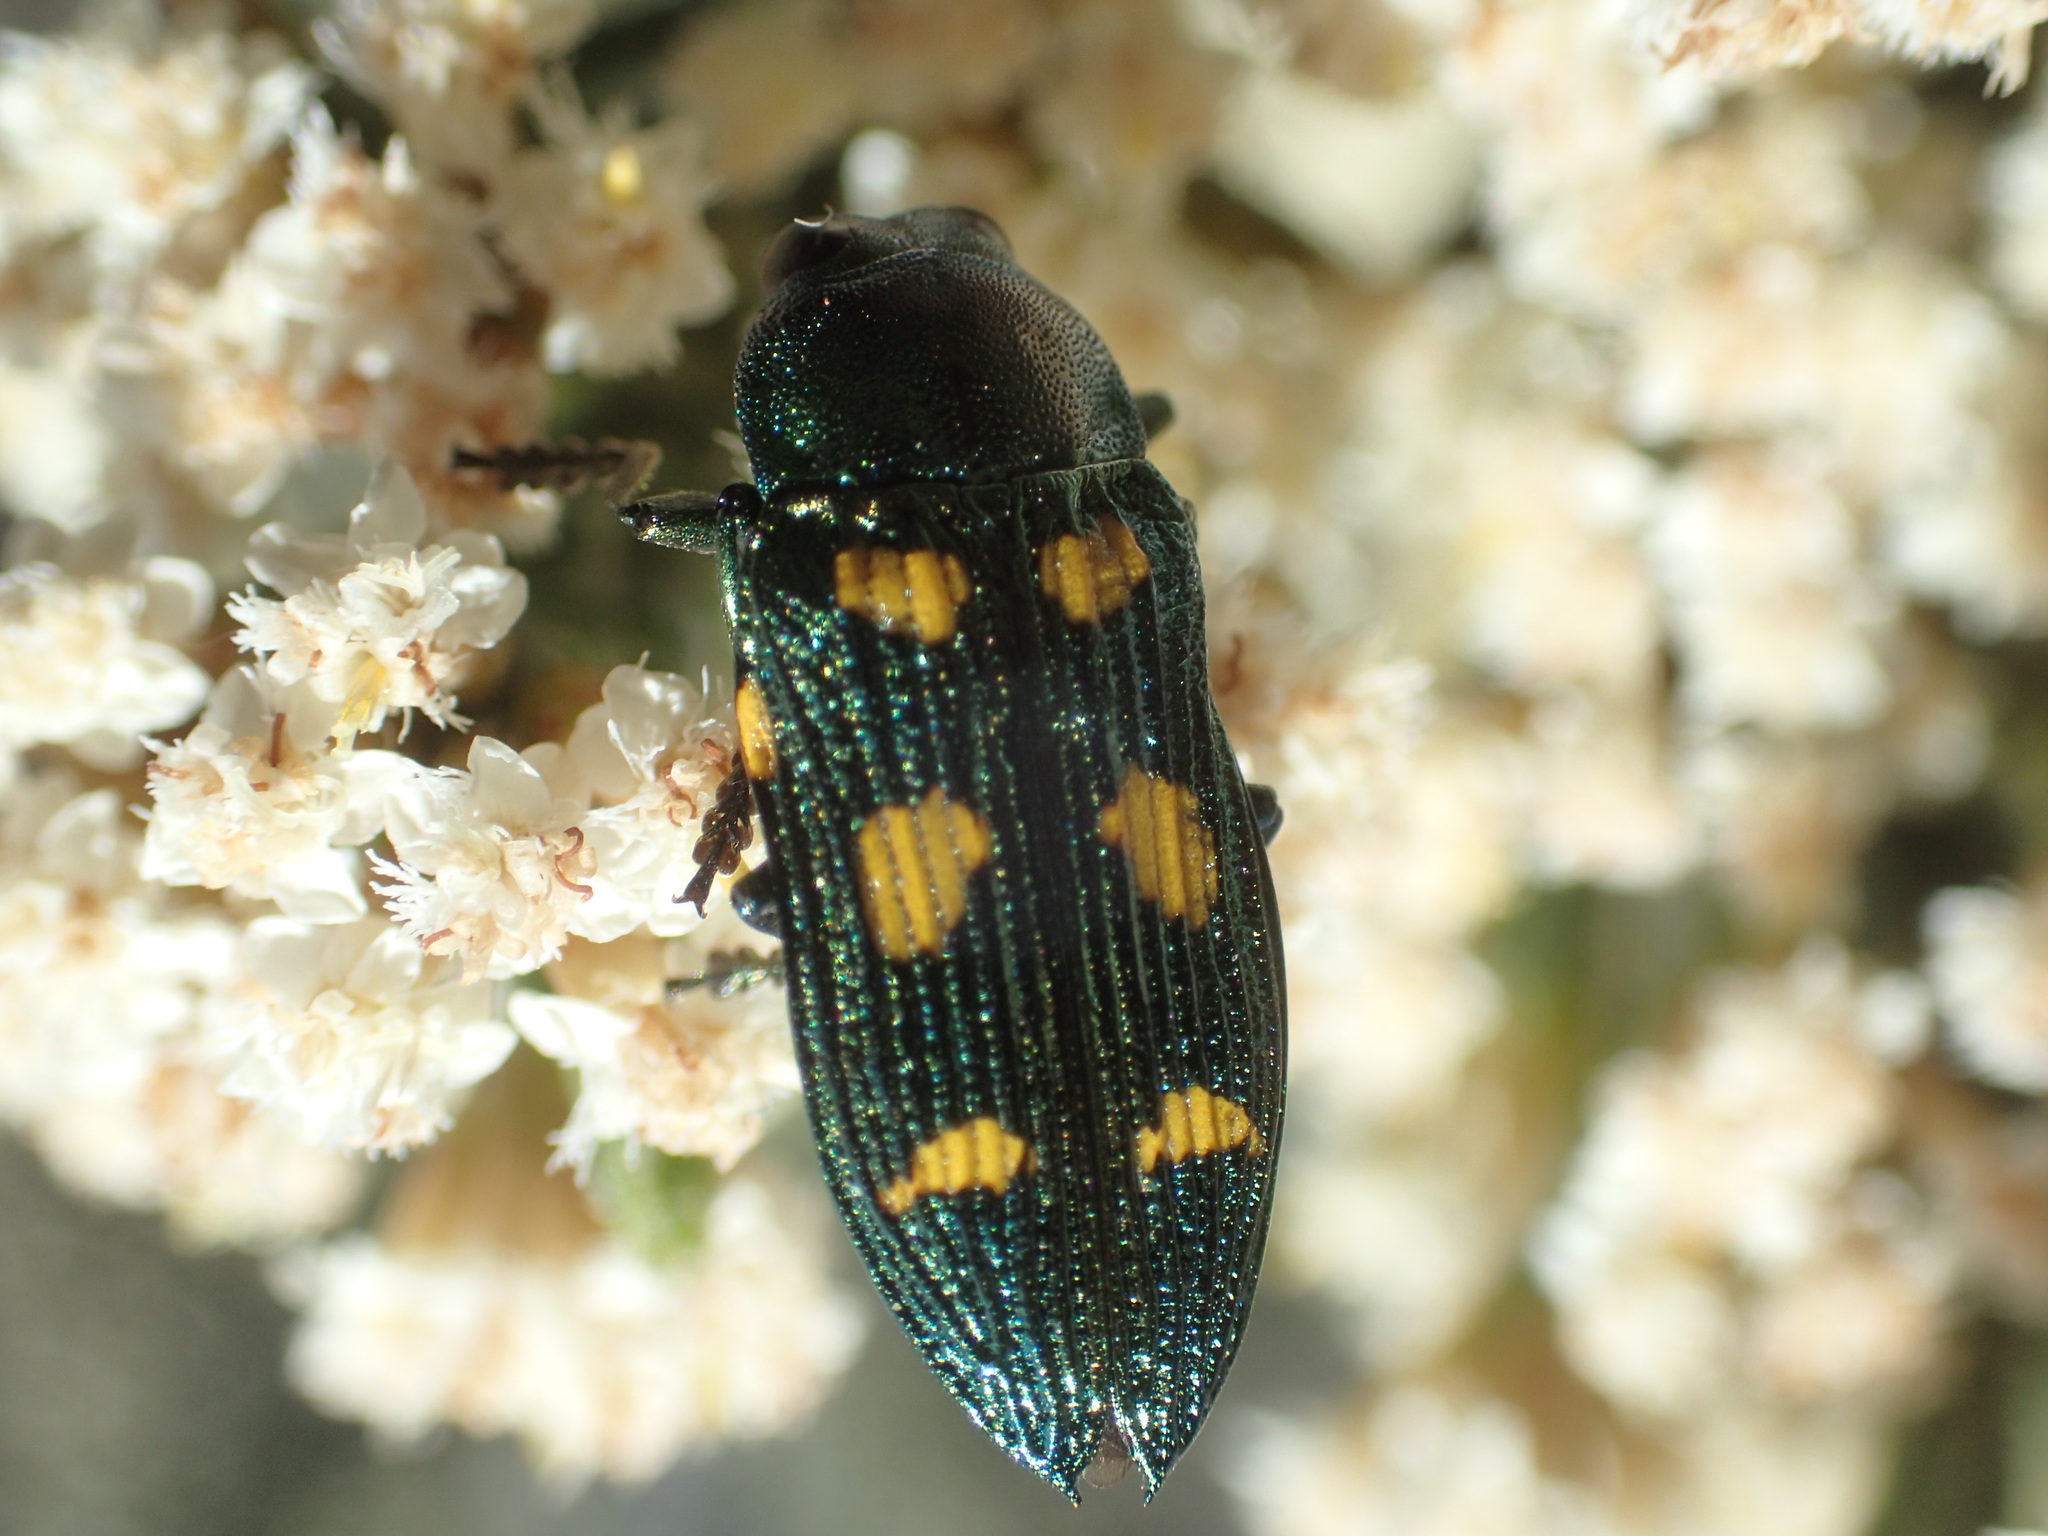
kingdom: Animalia
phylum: Arthropoda
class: Insecta
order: Coleoptera
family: Buprestidae
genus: Castiarina
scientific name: Castiarina insculpta
